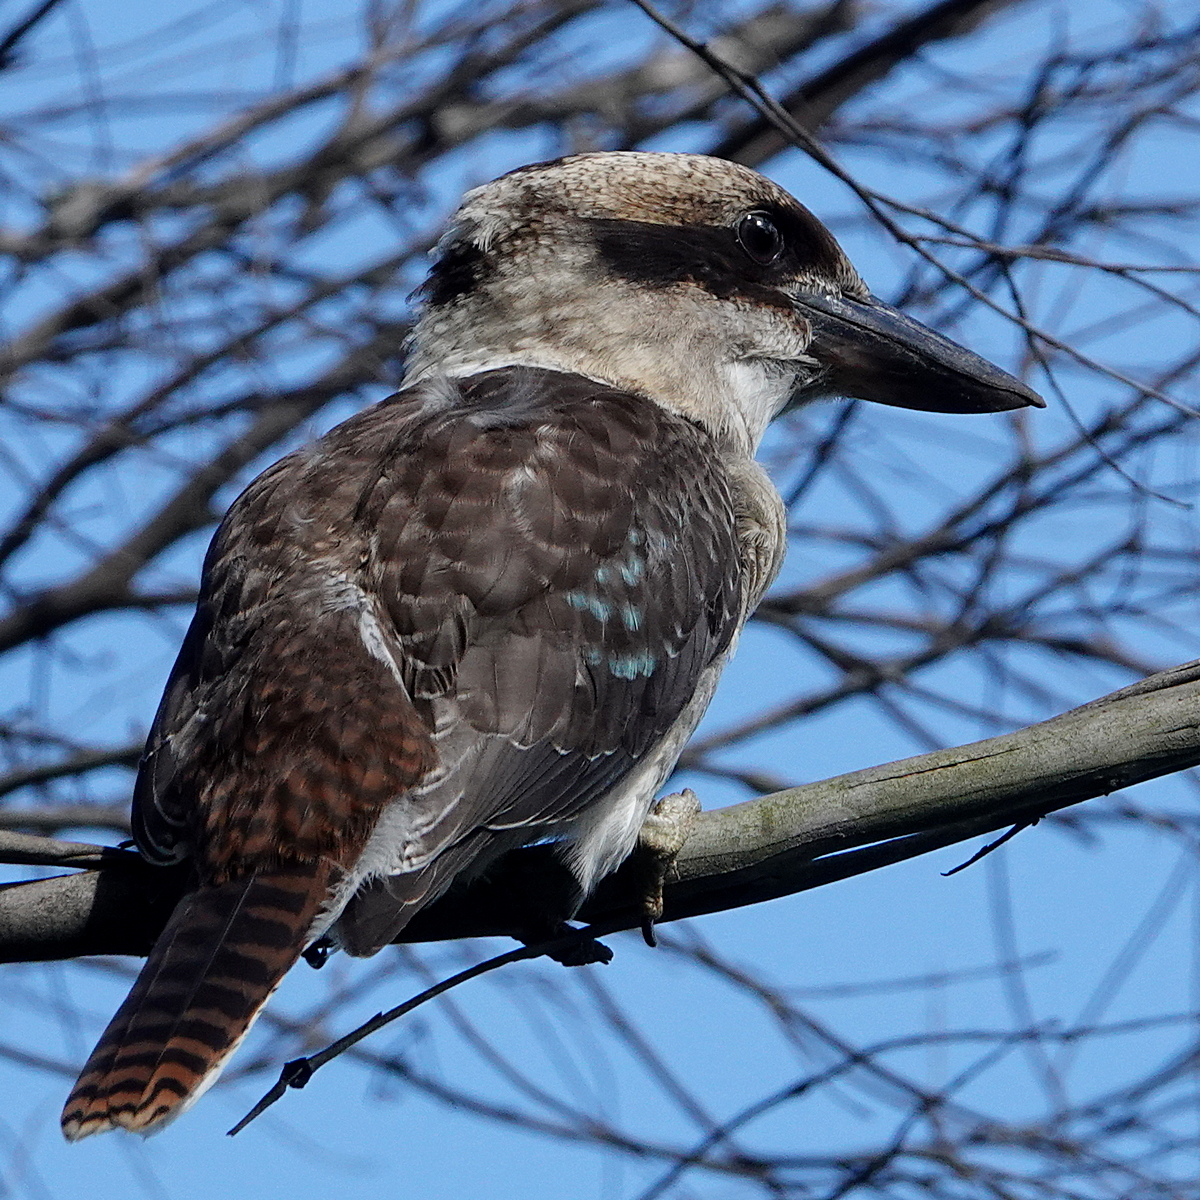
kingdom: Animalia
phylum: Chordata
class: Aves
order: Coraciiformes
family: Alcedinidae
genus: Dacelo
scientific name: Dacelo novaeguineae
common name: Laughing kookaburra
